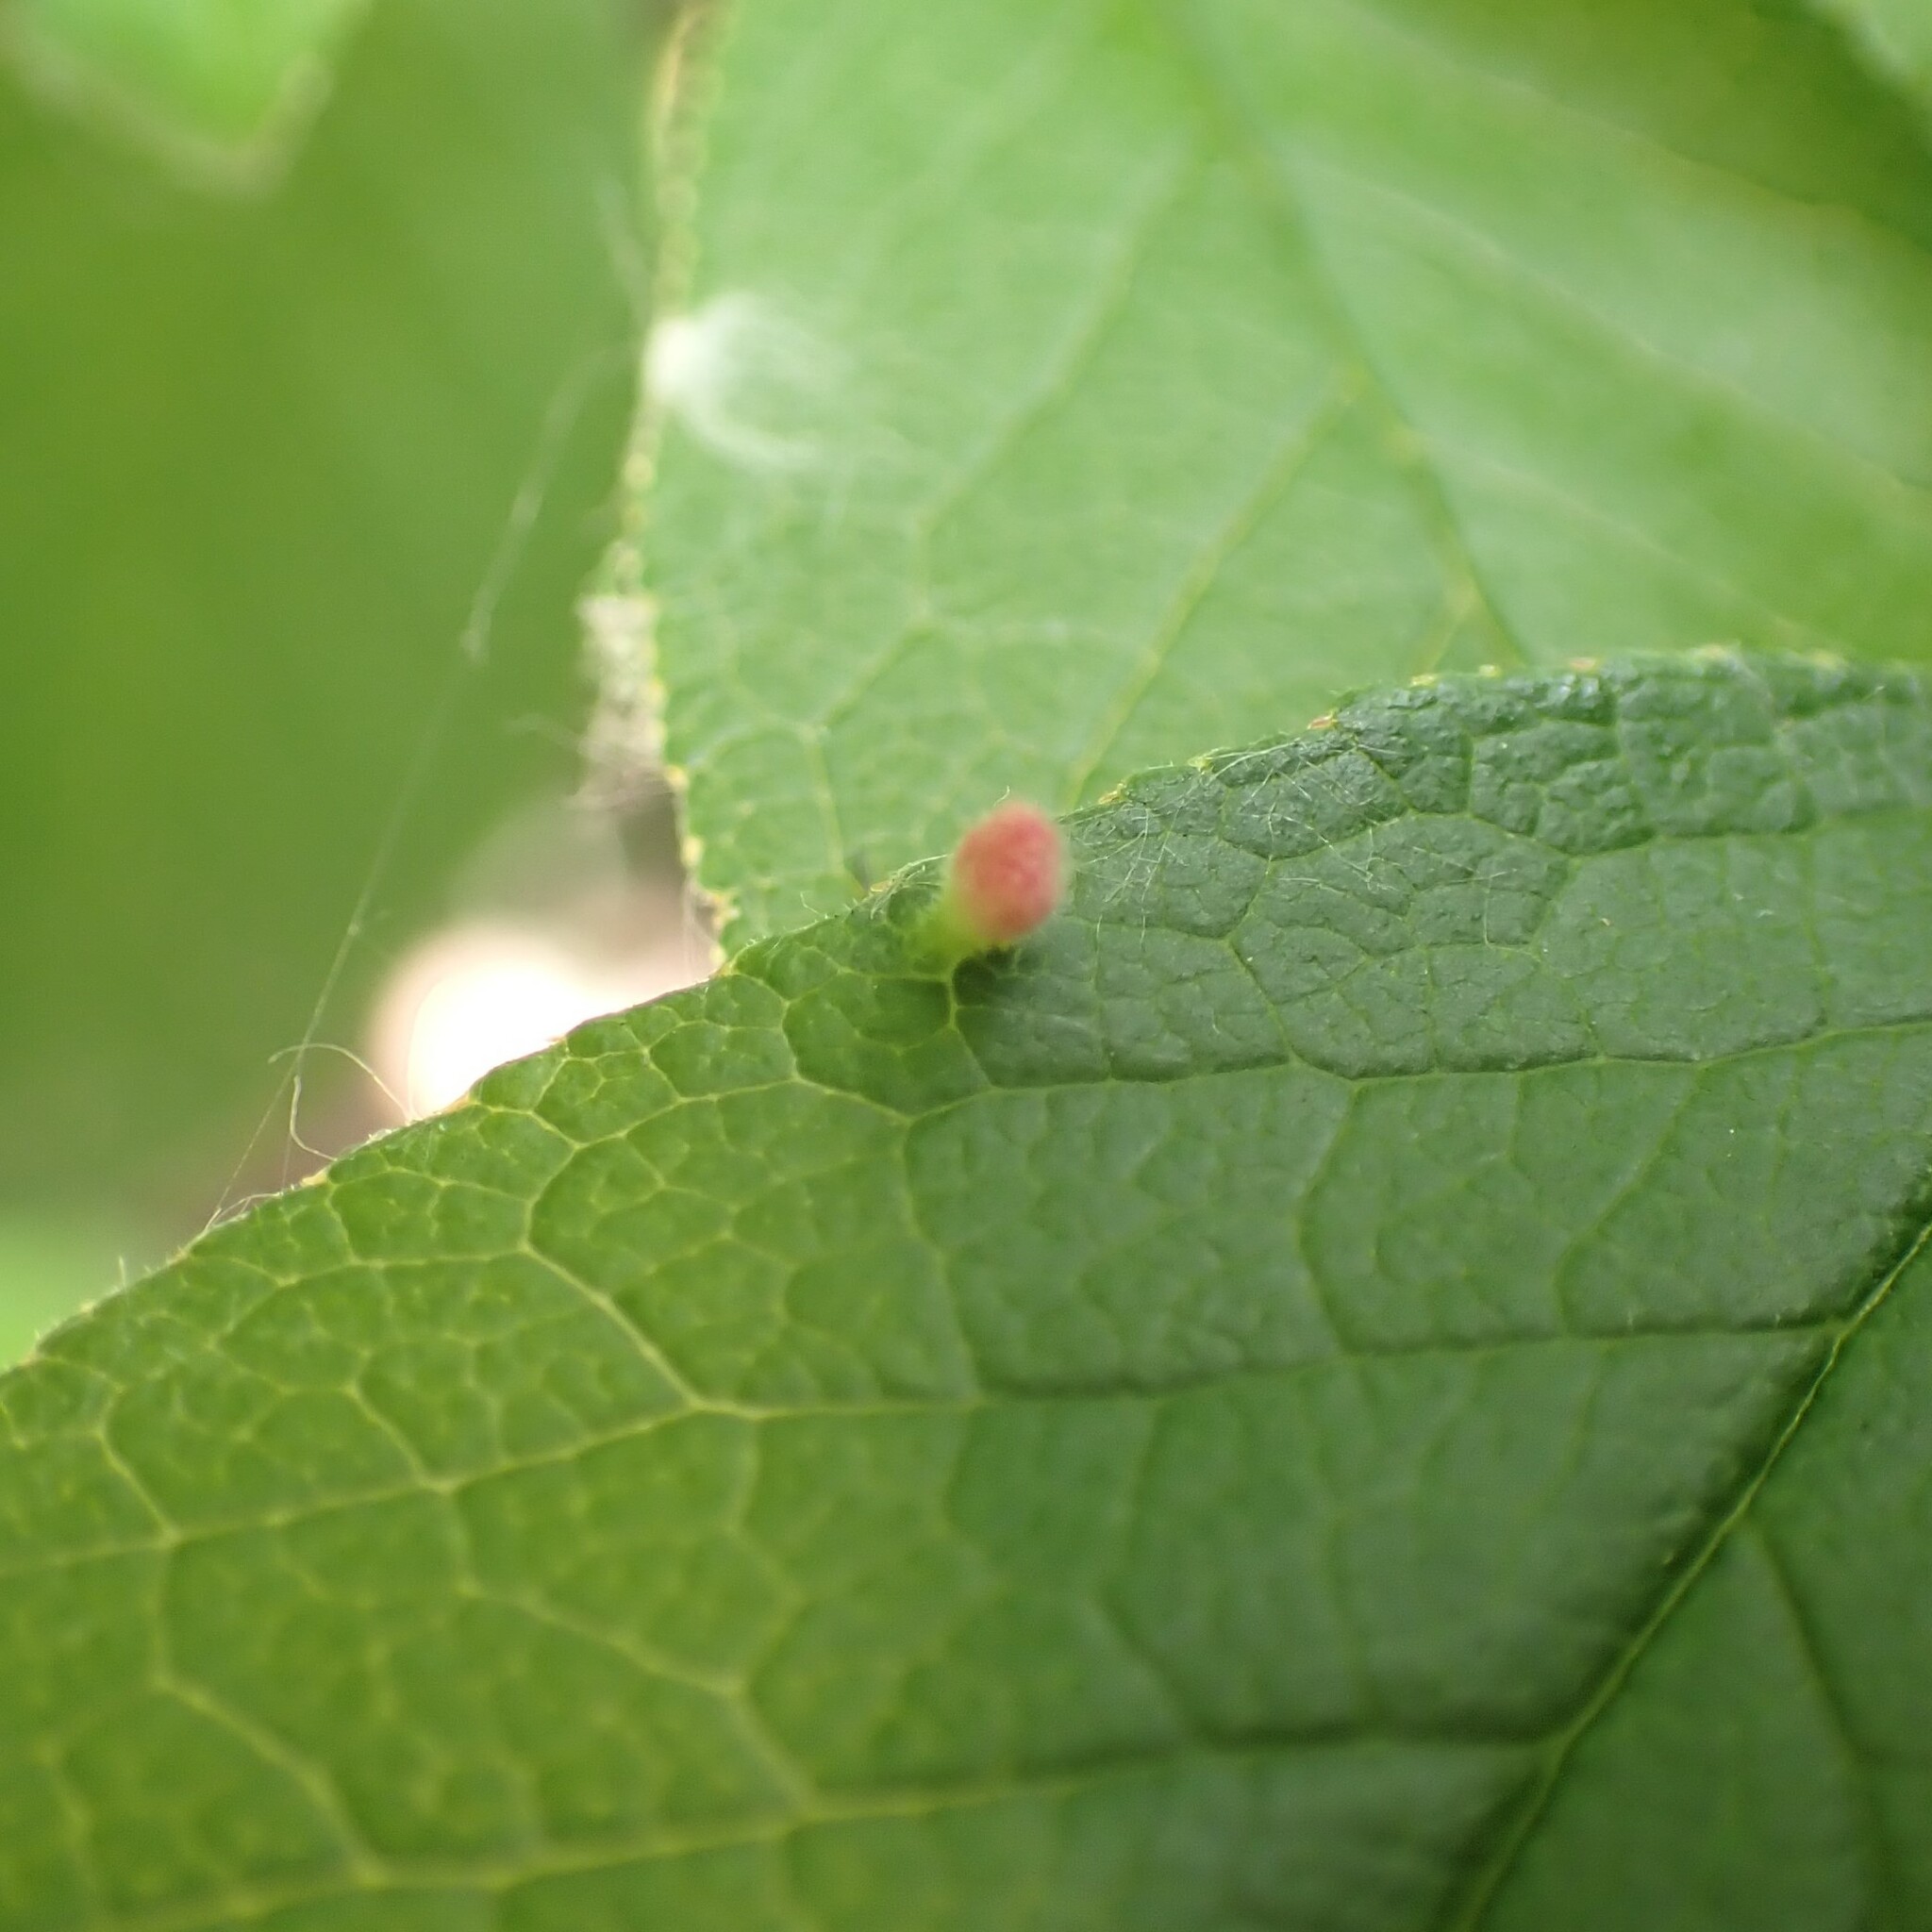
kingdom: Animalia
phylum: Arthropoda
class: Arachnida
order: Trombidiformes
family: Eriophyidae
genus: Eriophyes
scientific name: Eriophyes emarginatae
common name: Plum leaf gall mite
